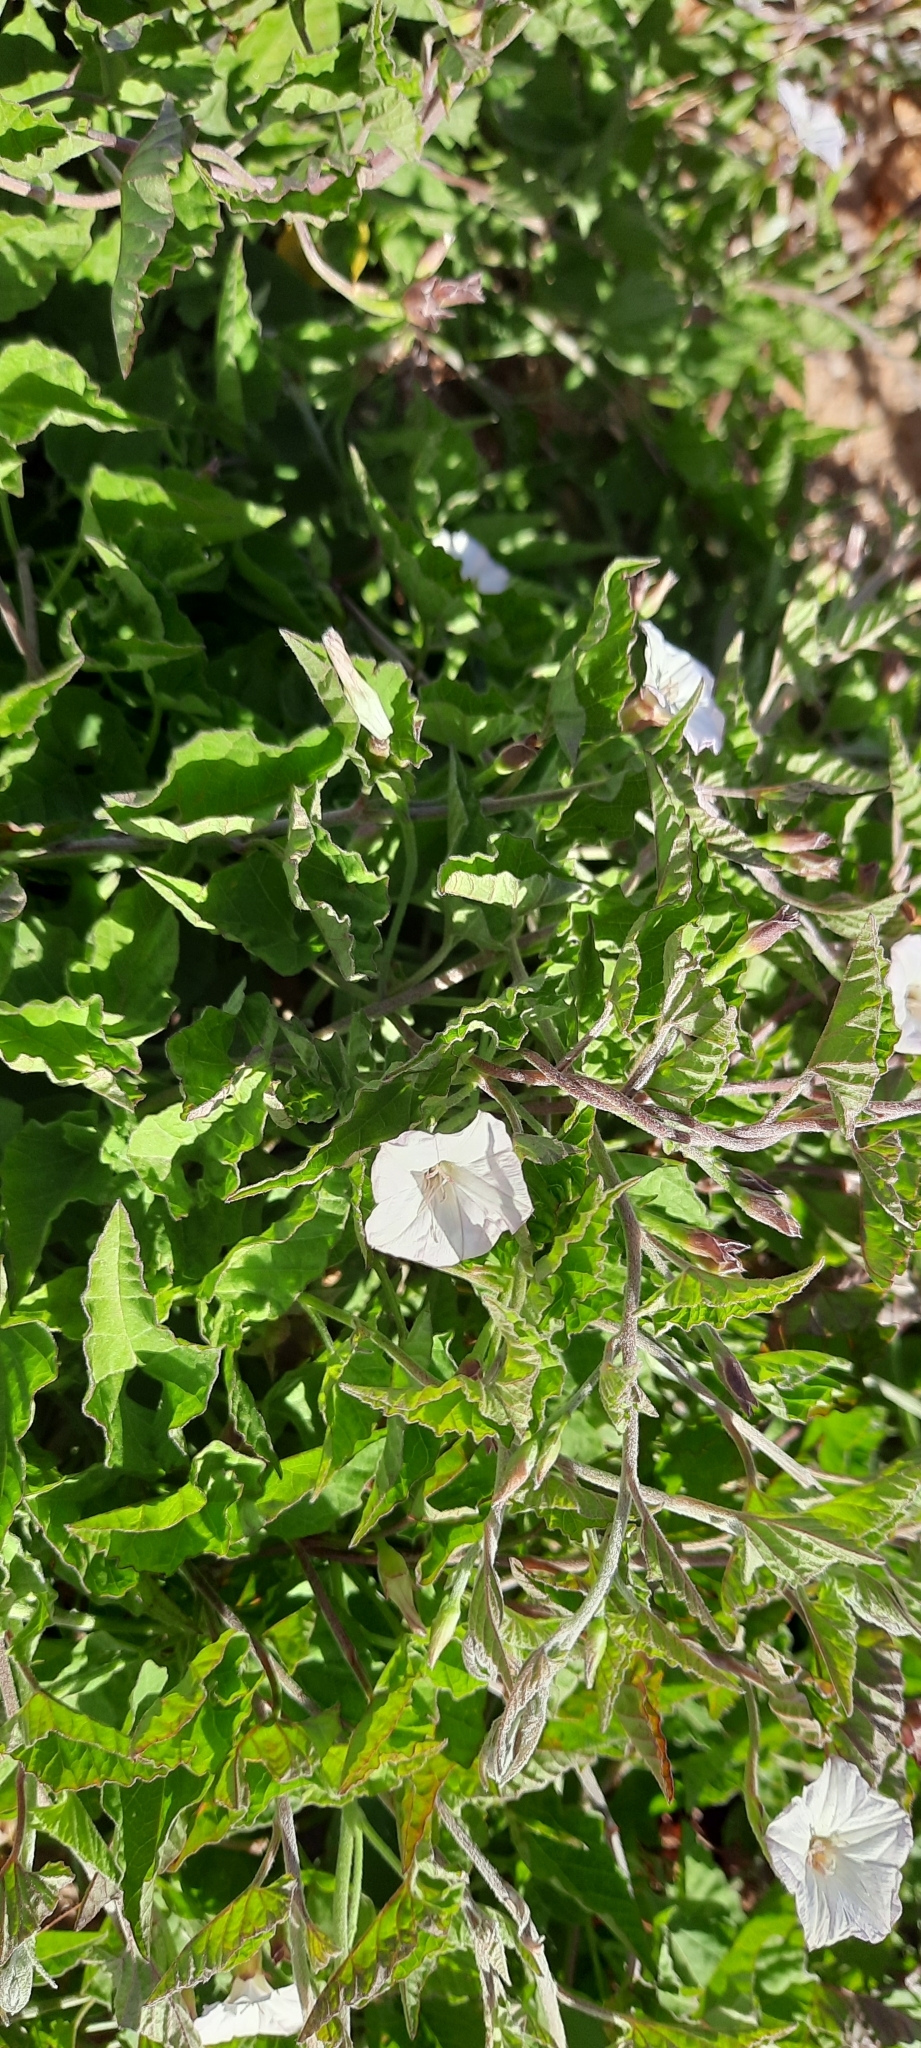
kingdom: Plantae
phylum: Tracheophyta
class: Magnoliopsida
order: Solanales
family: Convolvulaceae
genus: Convolvulus
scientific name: Convolvulus capensis
